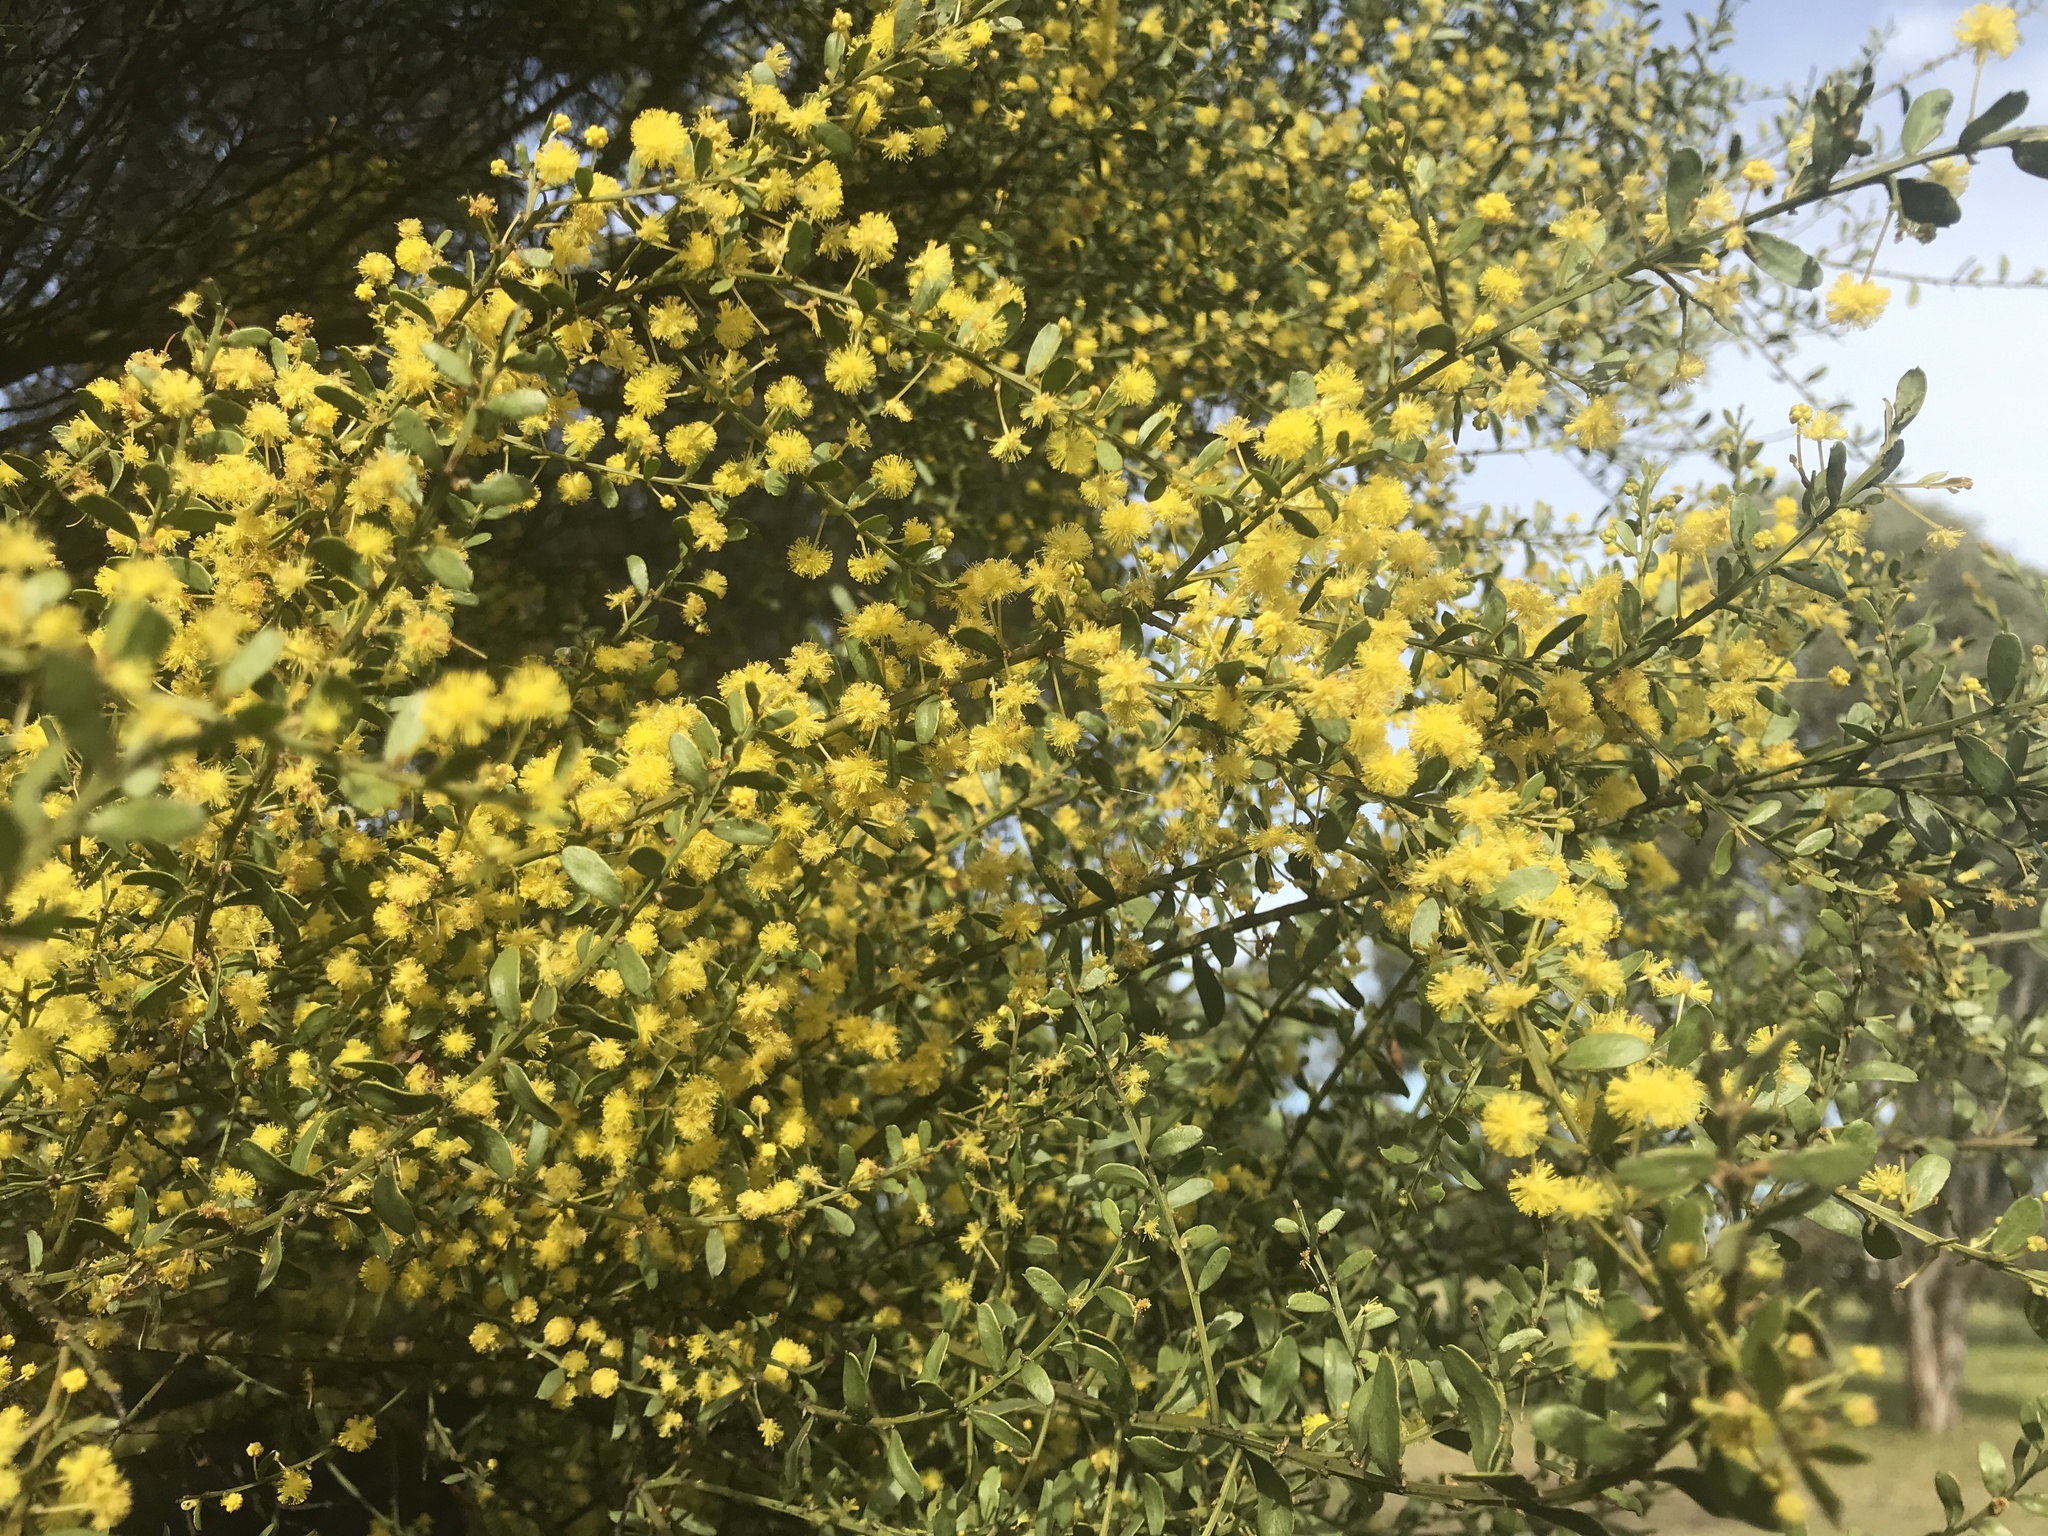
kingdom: Plantae
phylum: Tracheophyta
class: Magnoliopsida
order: Fabales
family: Fabaceae
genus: Acacia
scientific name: Acacia acinacea
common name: Gold-dust acacia
